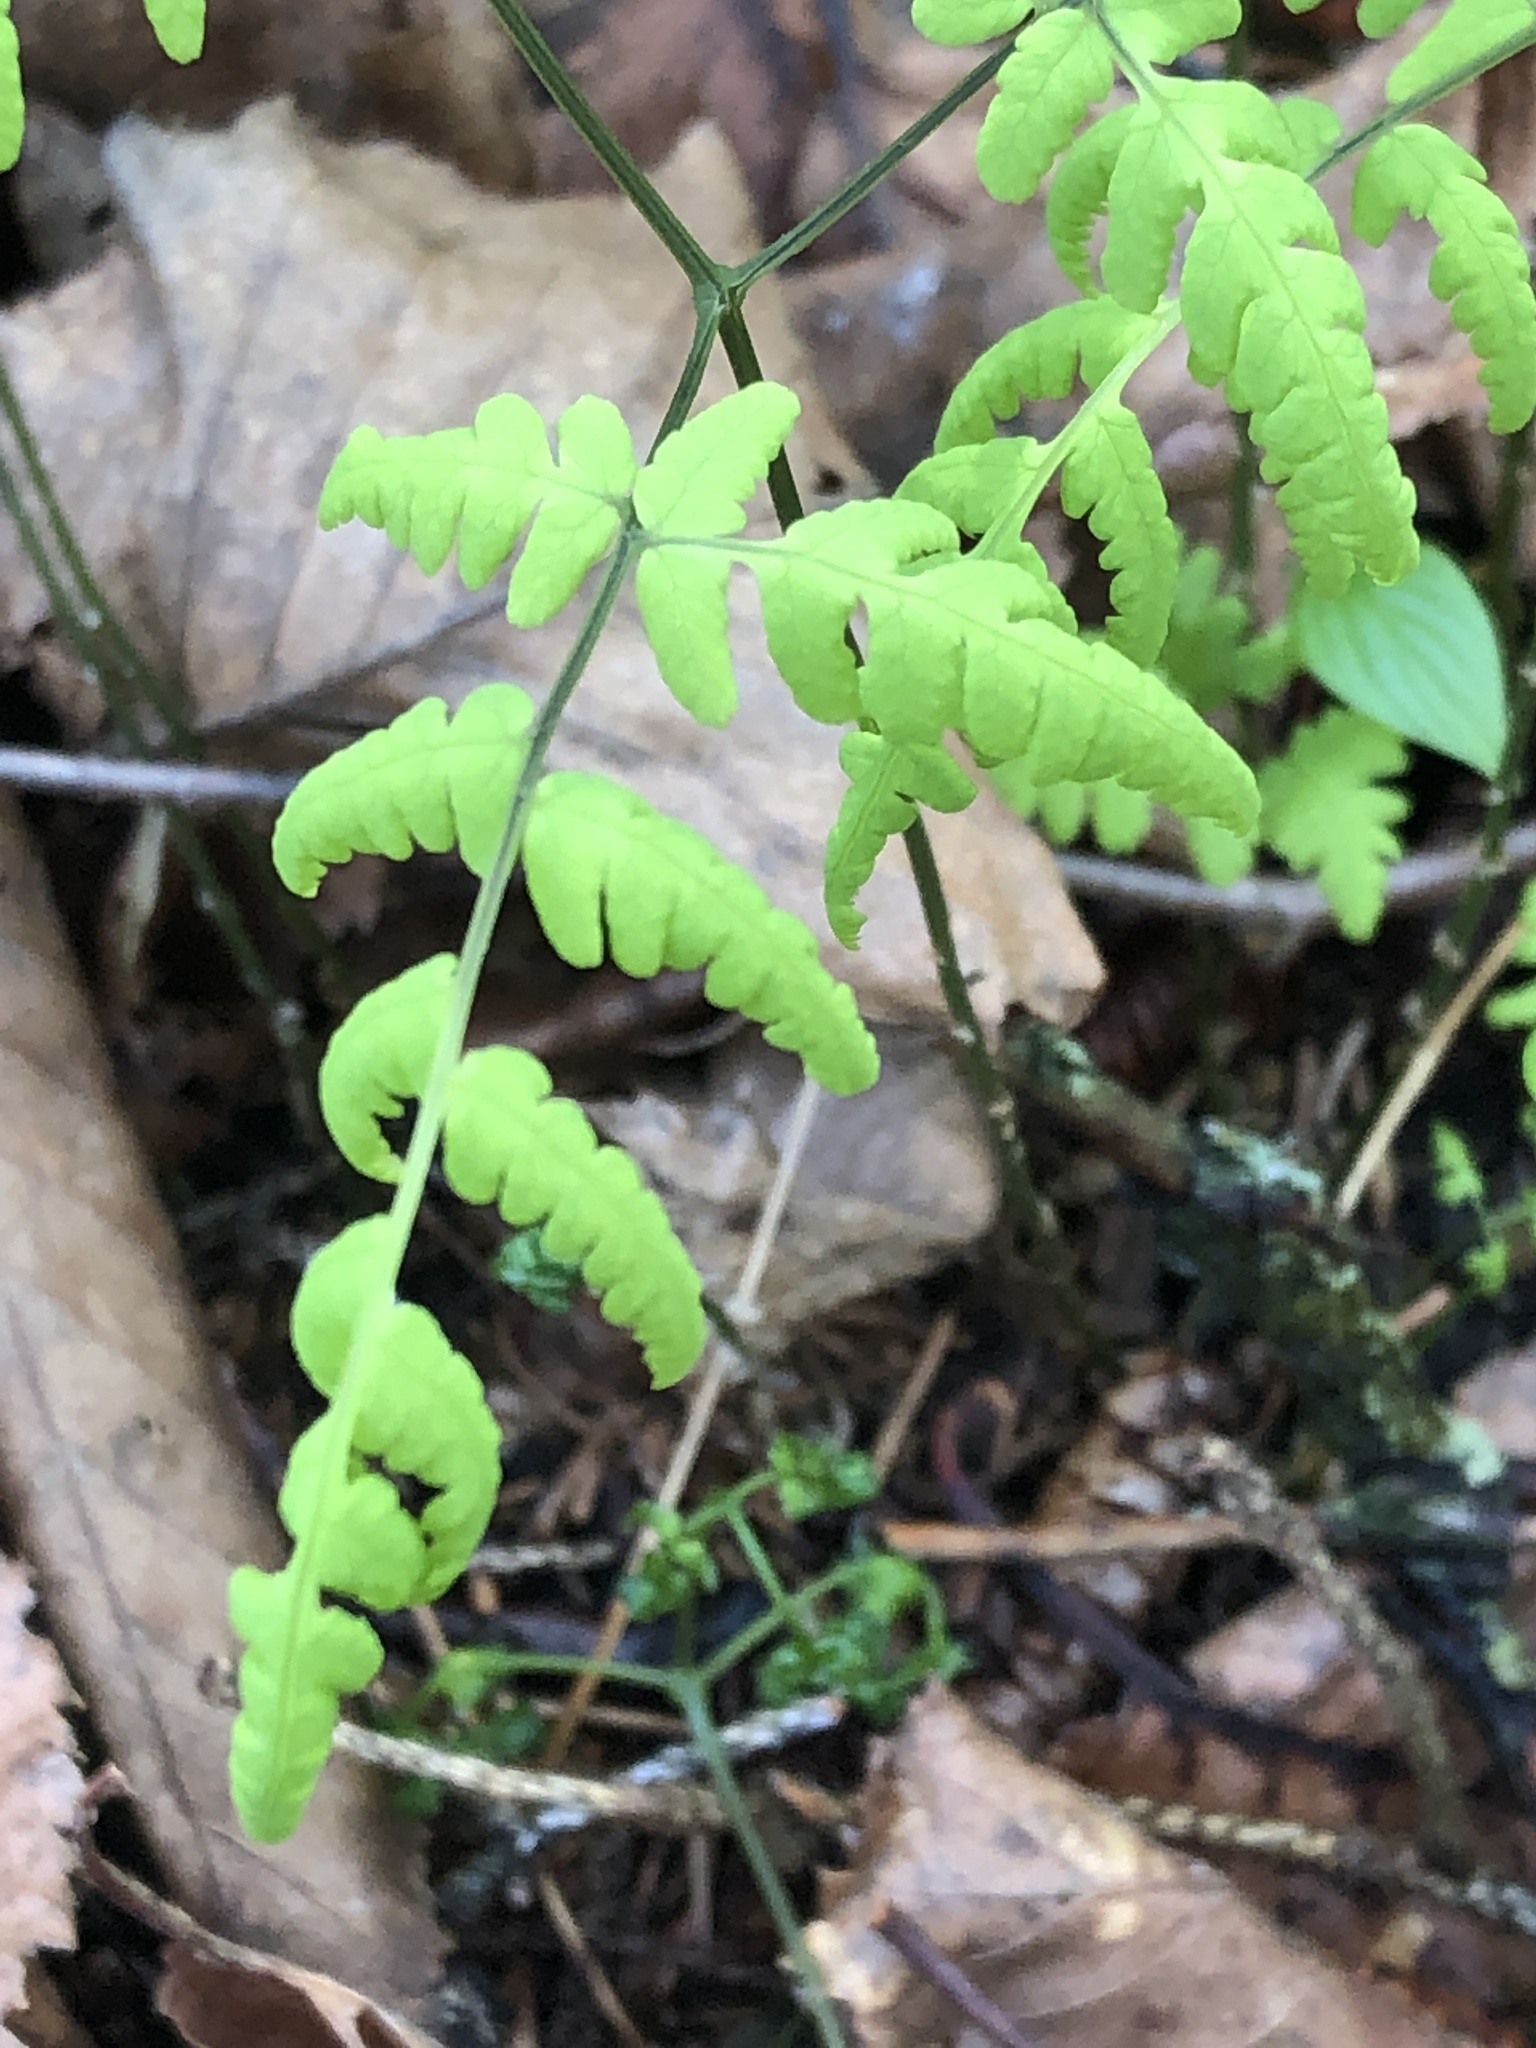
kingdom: Plantae
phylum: Tracheophyta
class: Polypodiopsida
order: Polypodiales
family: Cystopteridaceae
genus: Gymnocarpium
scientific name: Gymnocarpium dryopteris
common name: Oak fern
